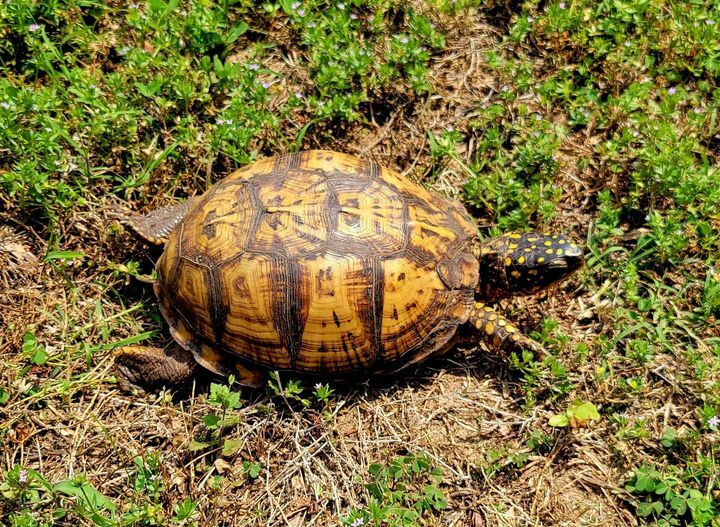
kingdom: Animalia
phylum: Chordata
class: Testudines
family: Emydidae
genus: Terrapene
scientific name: Terrapene carolina
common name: Common box turtle
